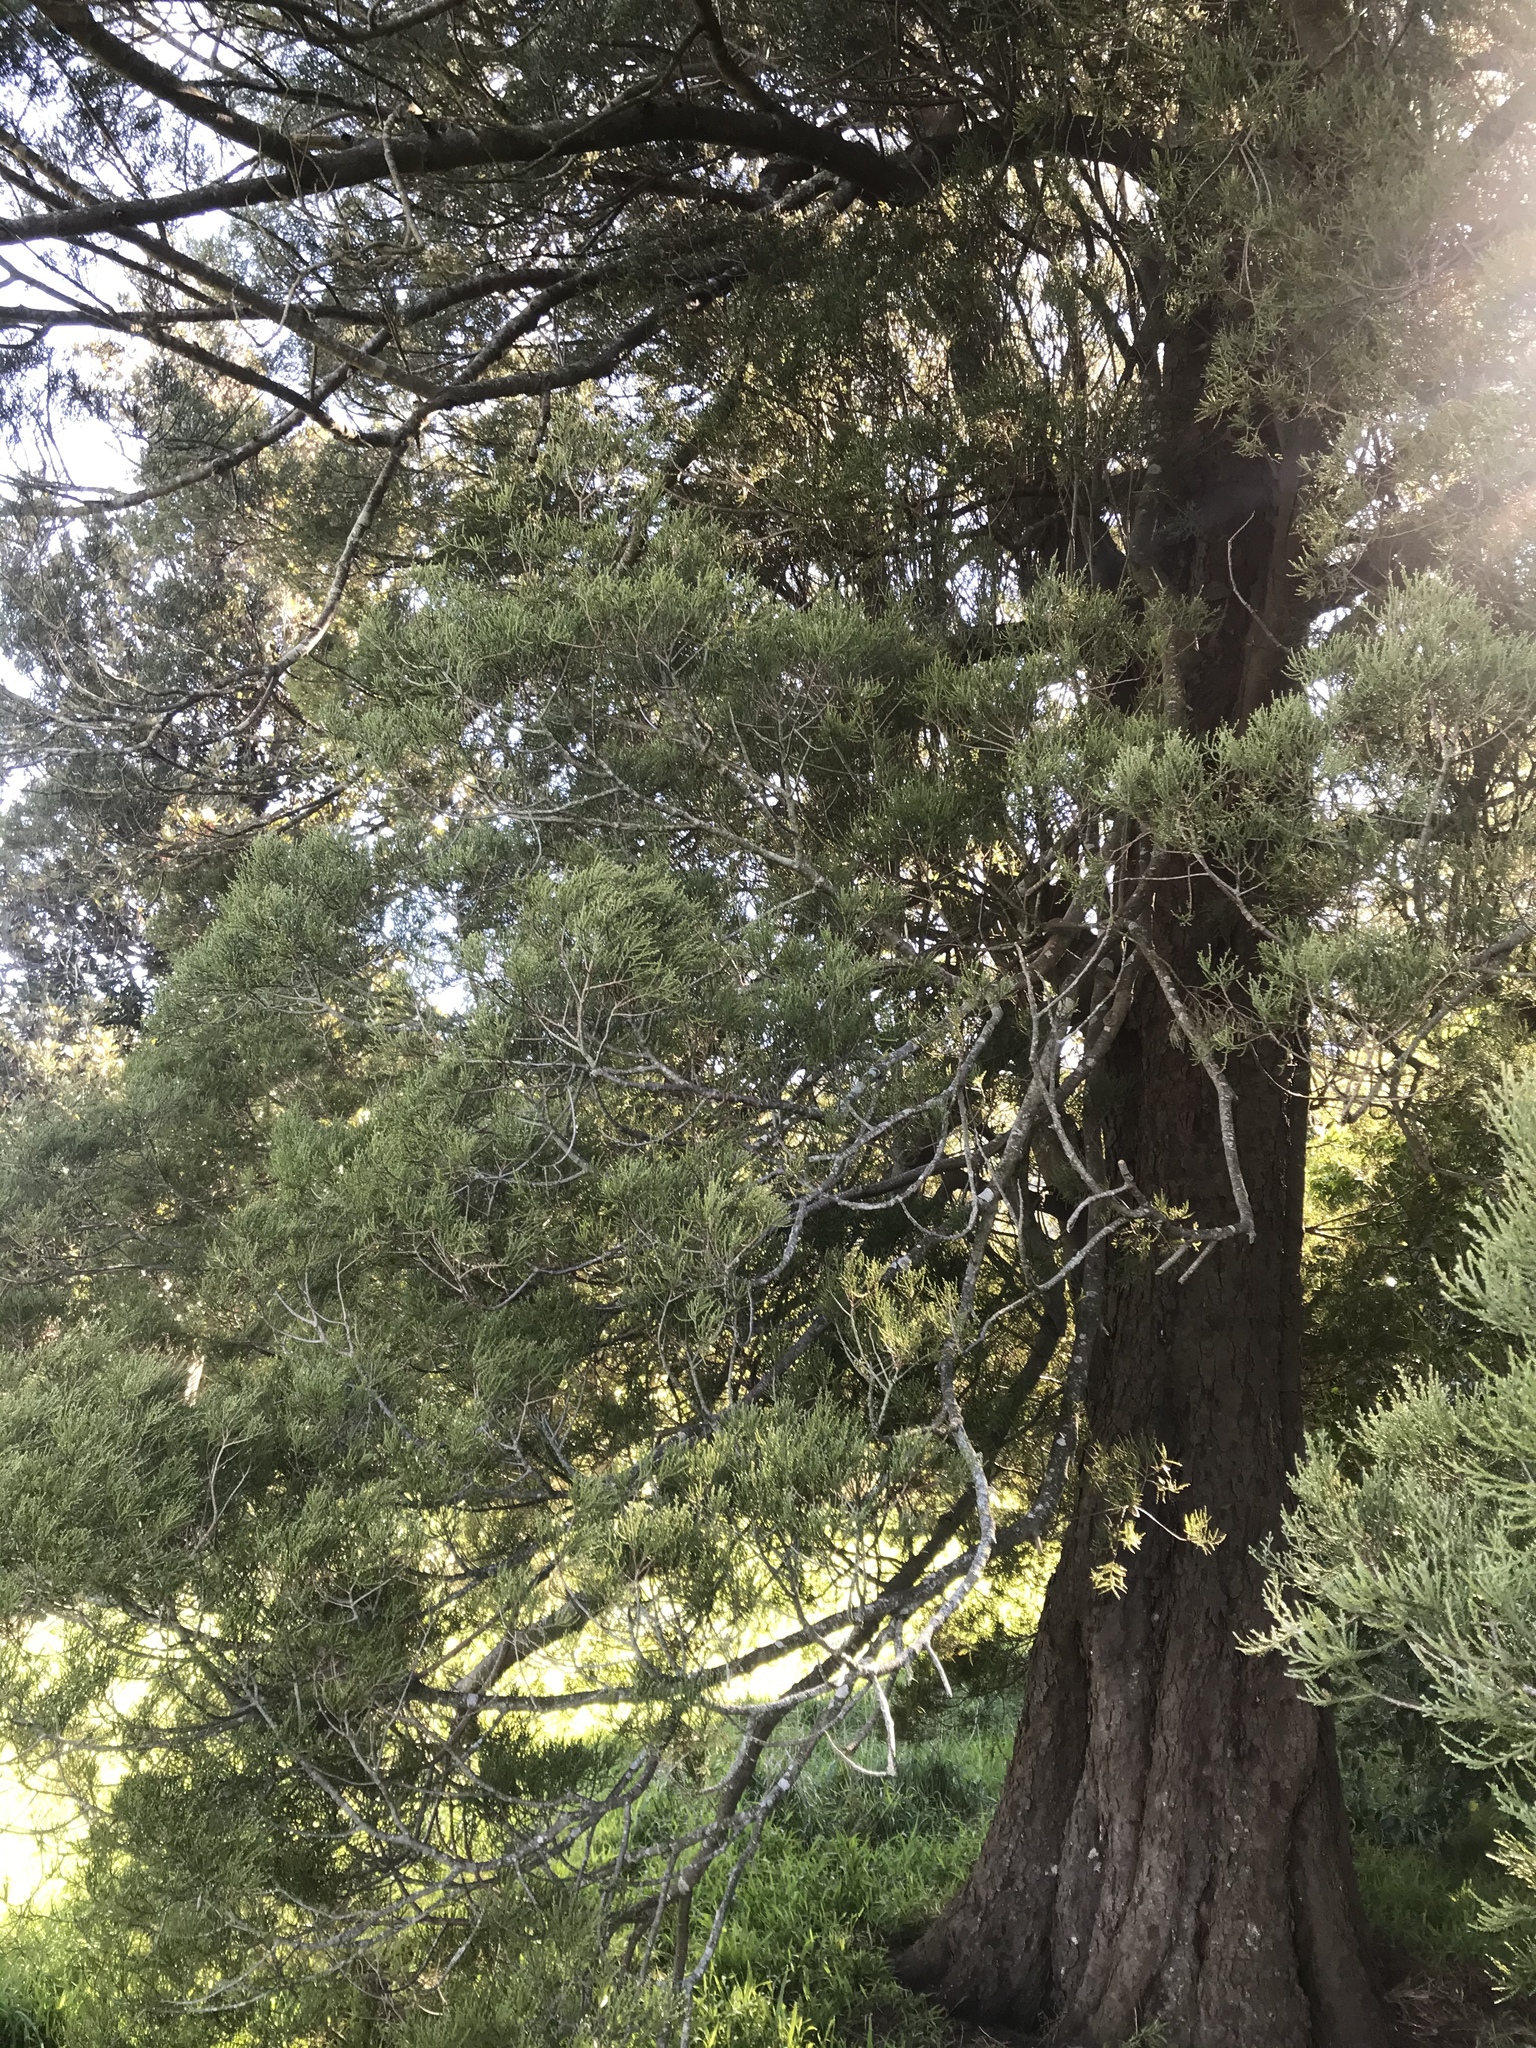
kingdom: Plantae
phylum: Tracheophyta
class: Pinopsida
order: Pinales
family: Podocarpaceae
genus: Dacrycarpus
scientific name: Dacrycarpus dacrydioides
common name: White pine
